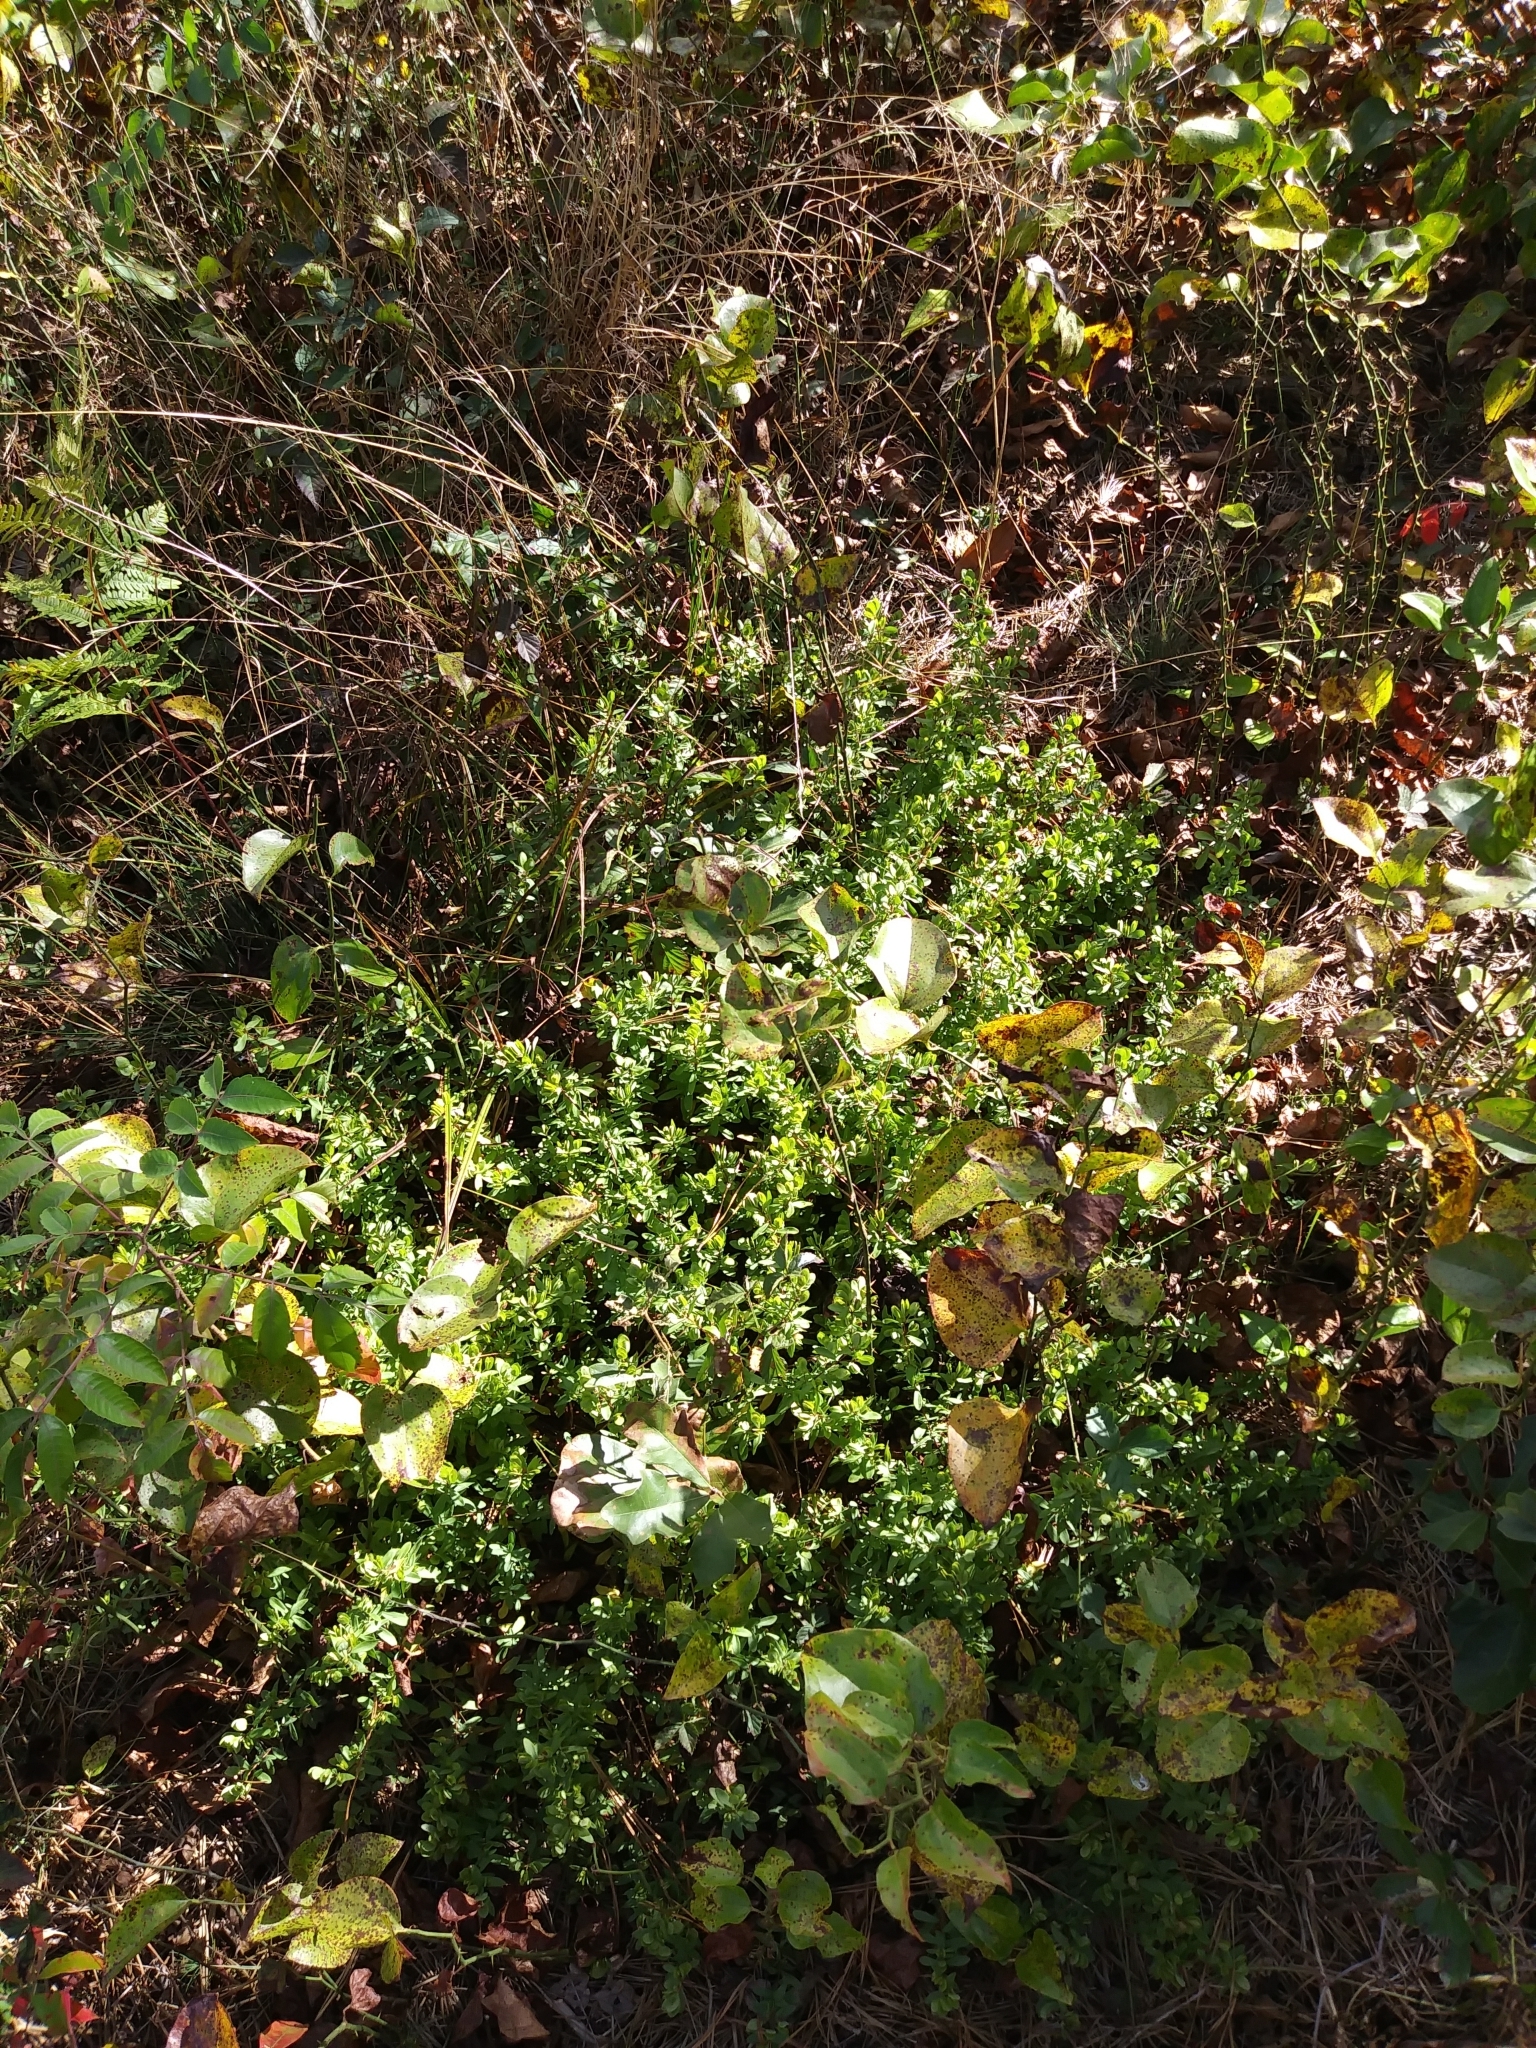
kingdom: Plantae
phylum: Tracheophyta
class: Magnoliopsida
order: Malpighiales
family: Hypericaceae
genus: Hypericum
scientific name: Hypericum hypericoides
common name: St. andrew's cross
